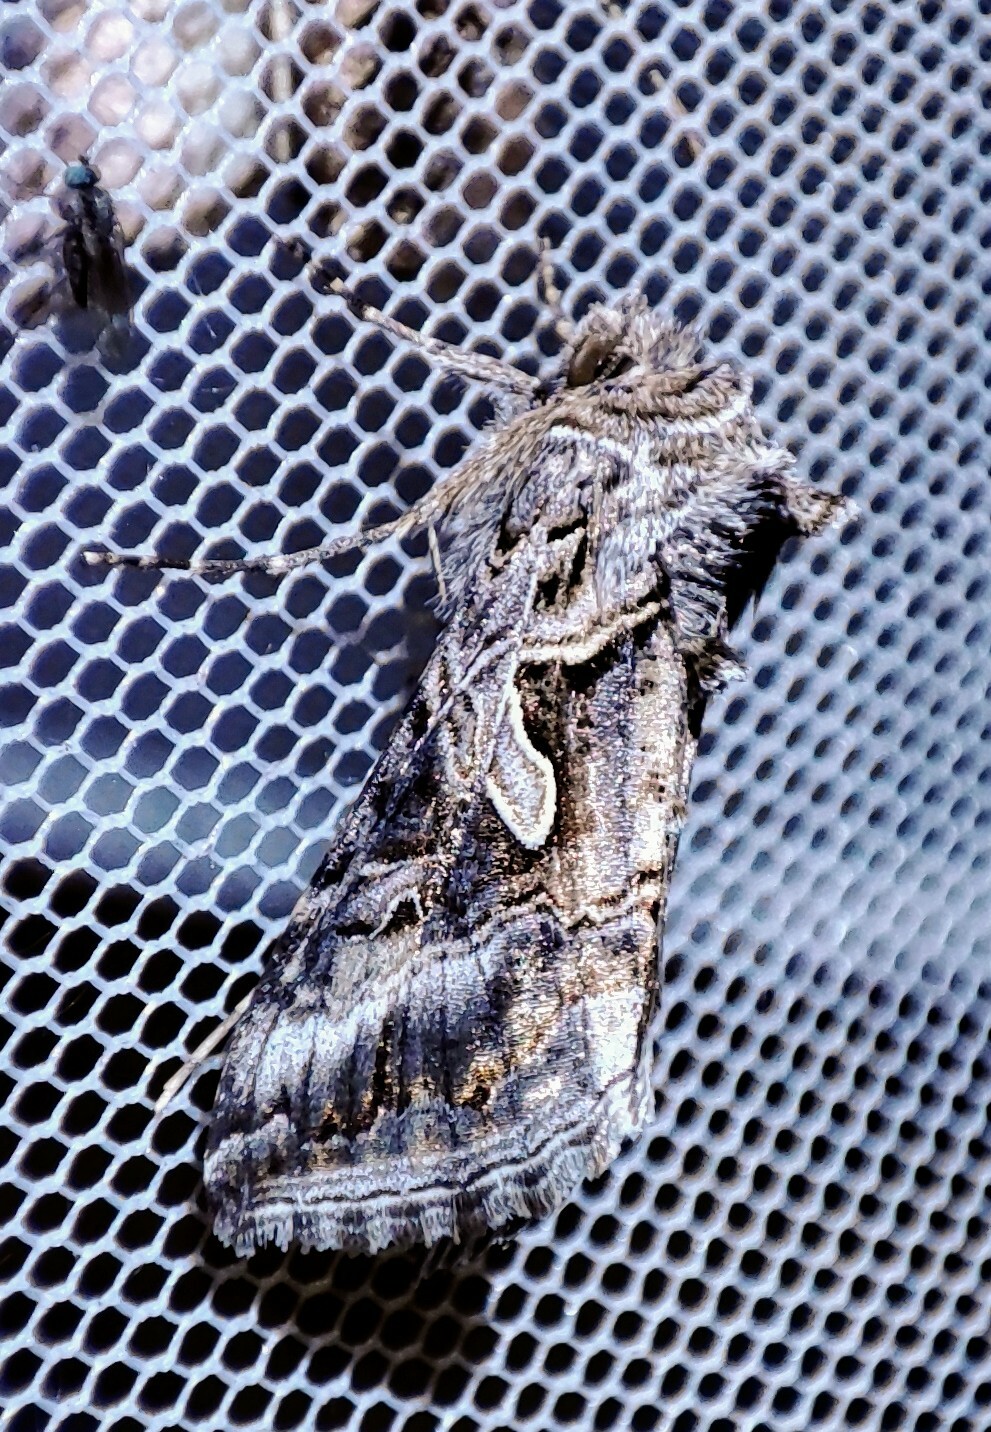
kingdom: Animalia
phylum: Arthropoda
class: Insecta
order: Lepidoptera
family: Noctuidae
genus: Cornutiplusia
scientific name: Cornutiplusia circumflexa
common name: Yorkshire y
